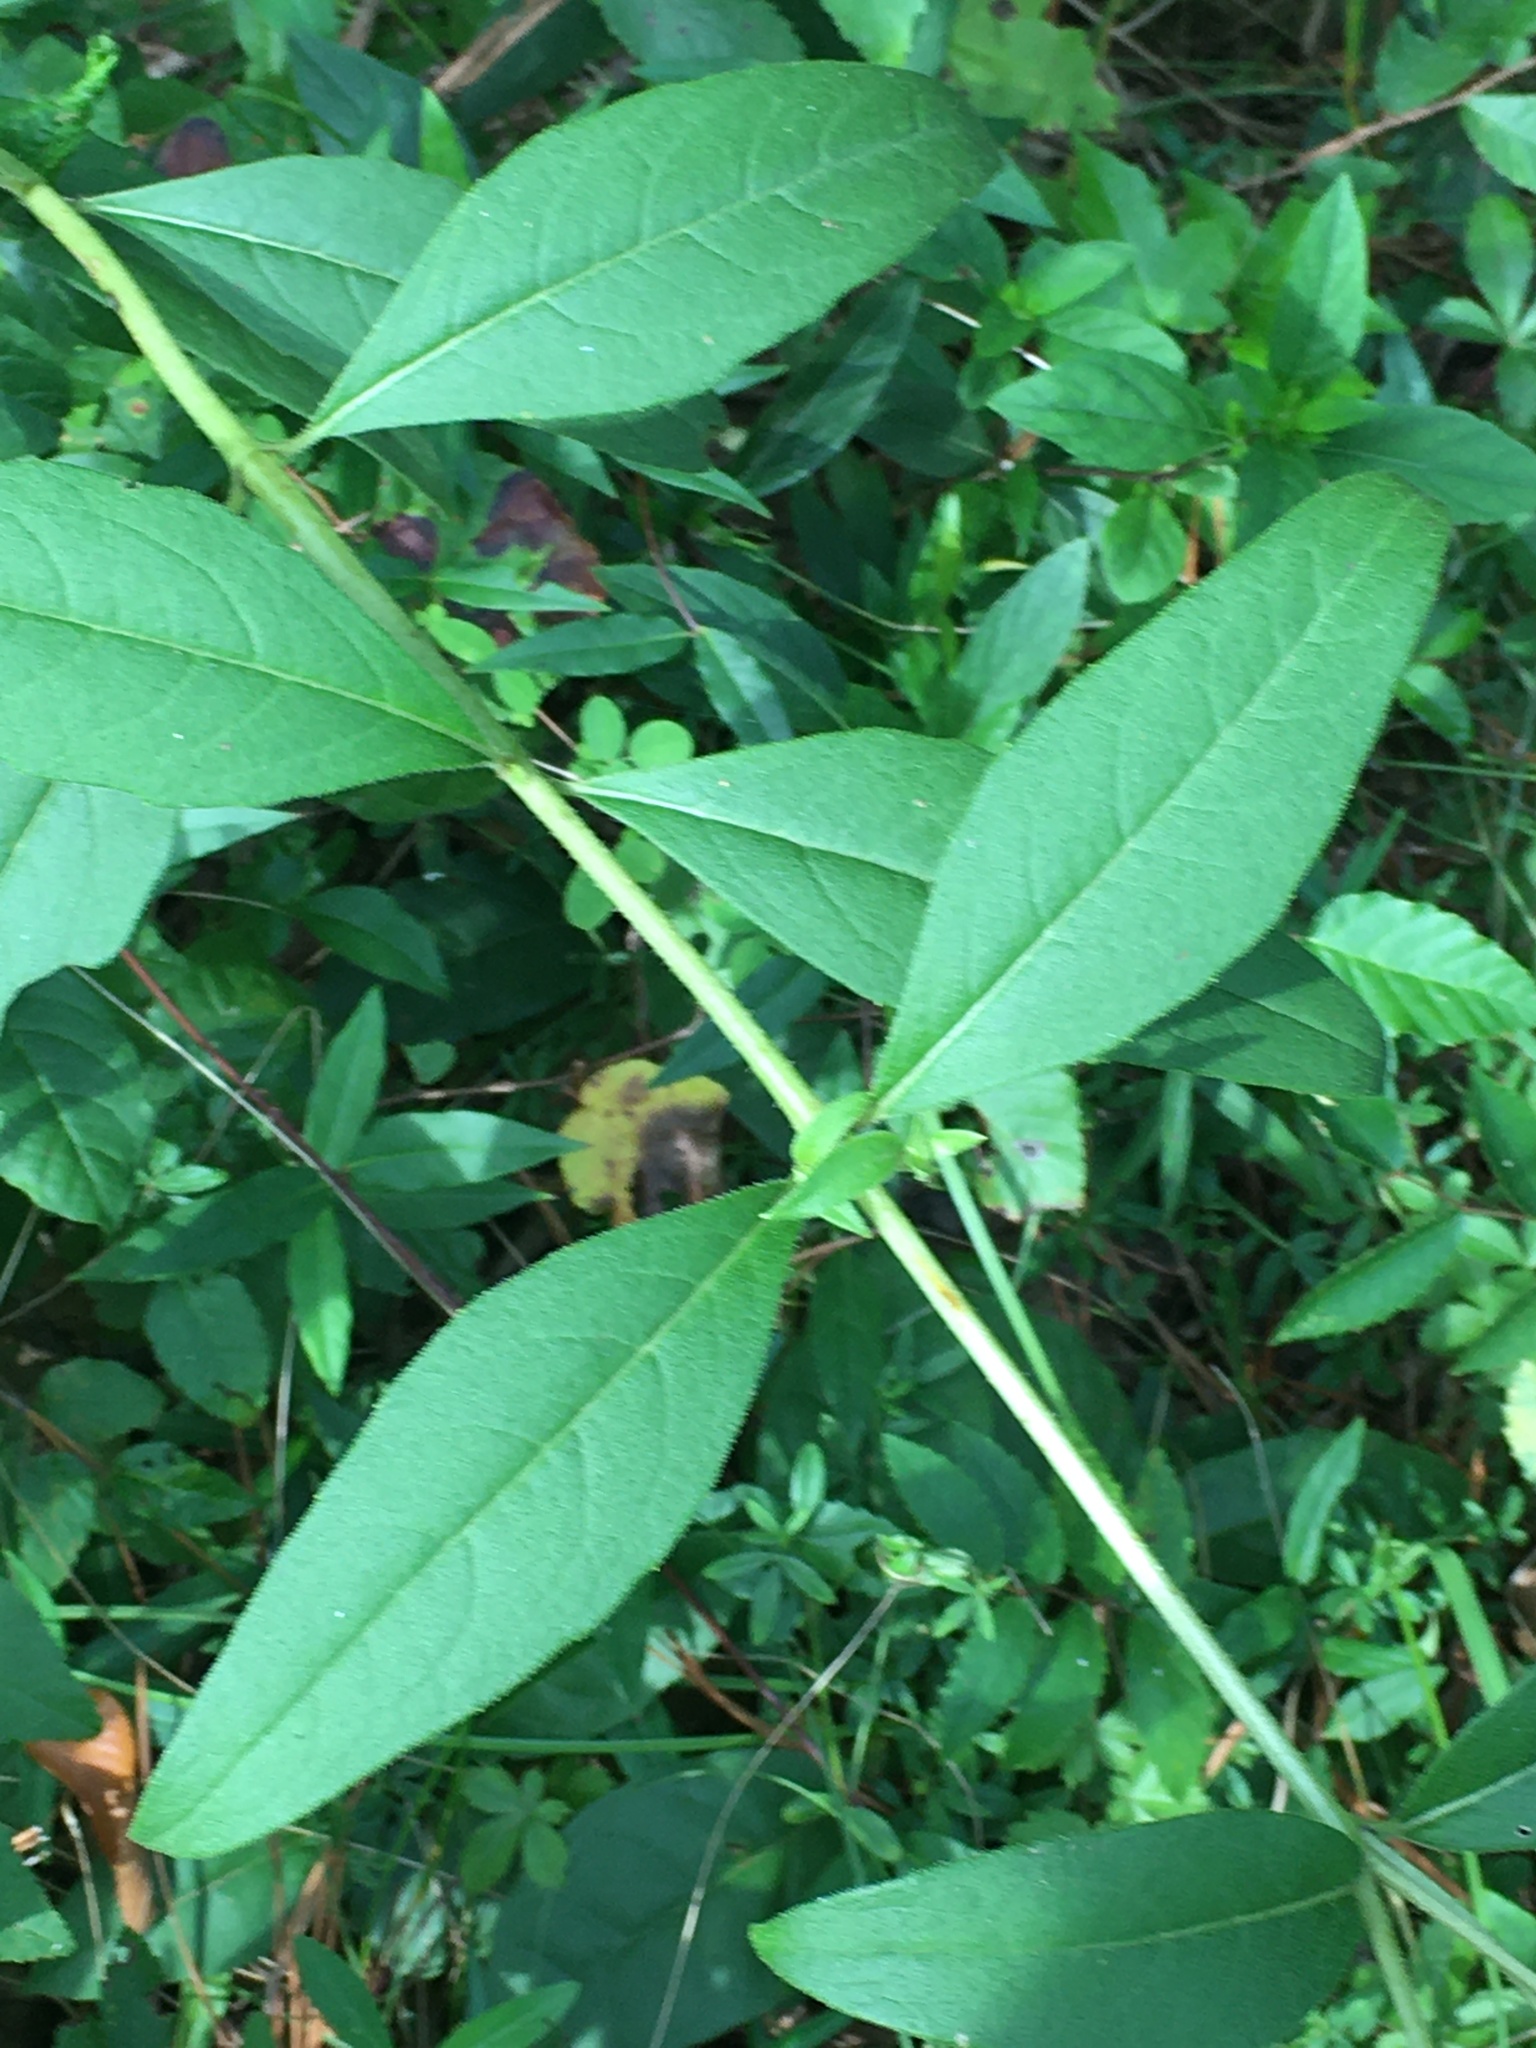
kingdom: Plantae
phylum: Tracheophyta
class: Magnoliopsida
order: Asterales
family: Asteraceae
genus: Silphium
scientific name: Silphium asteriscus
